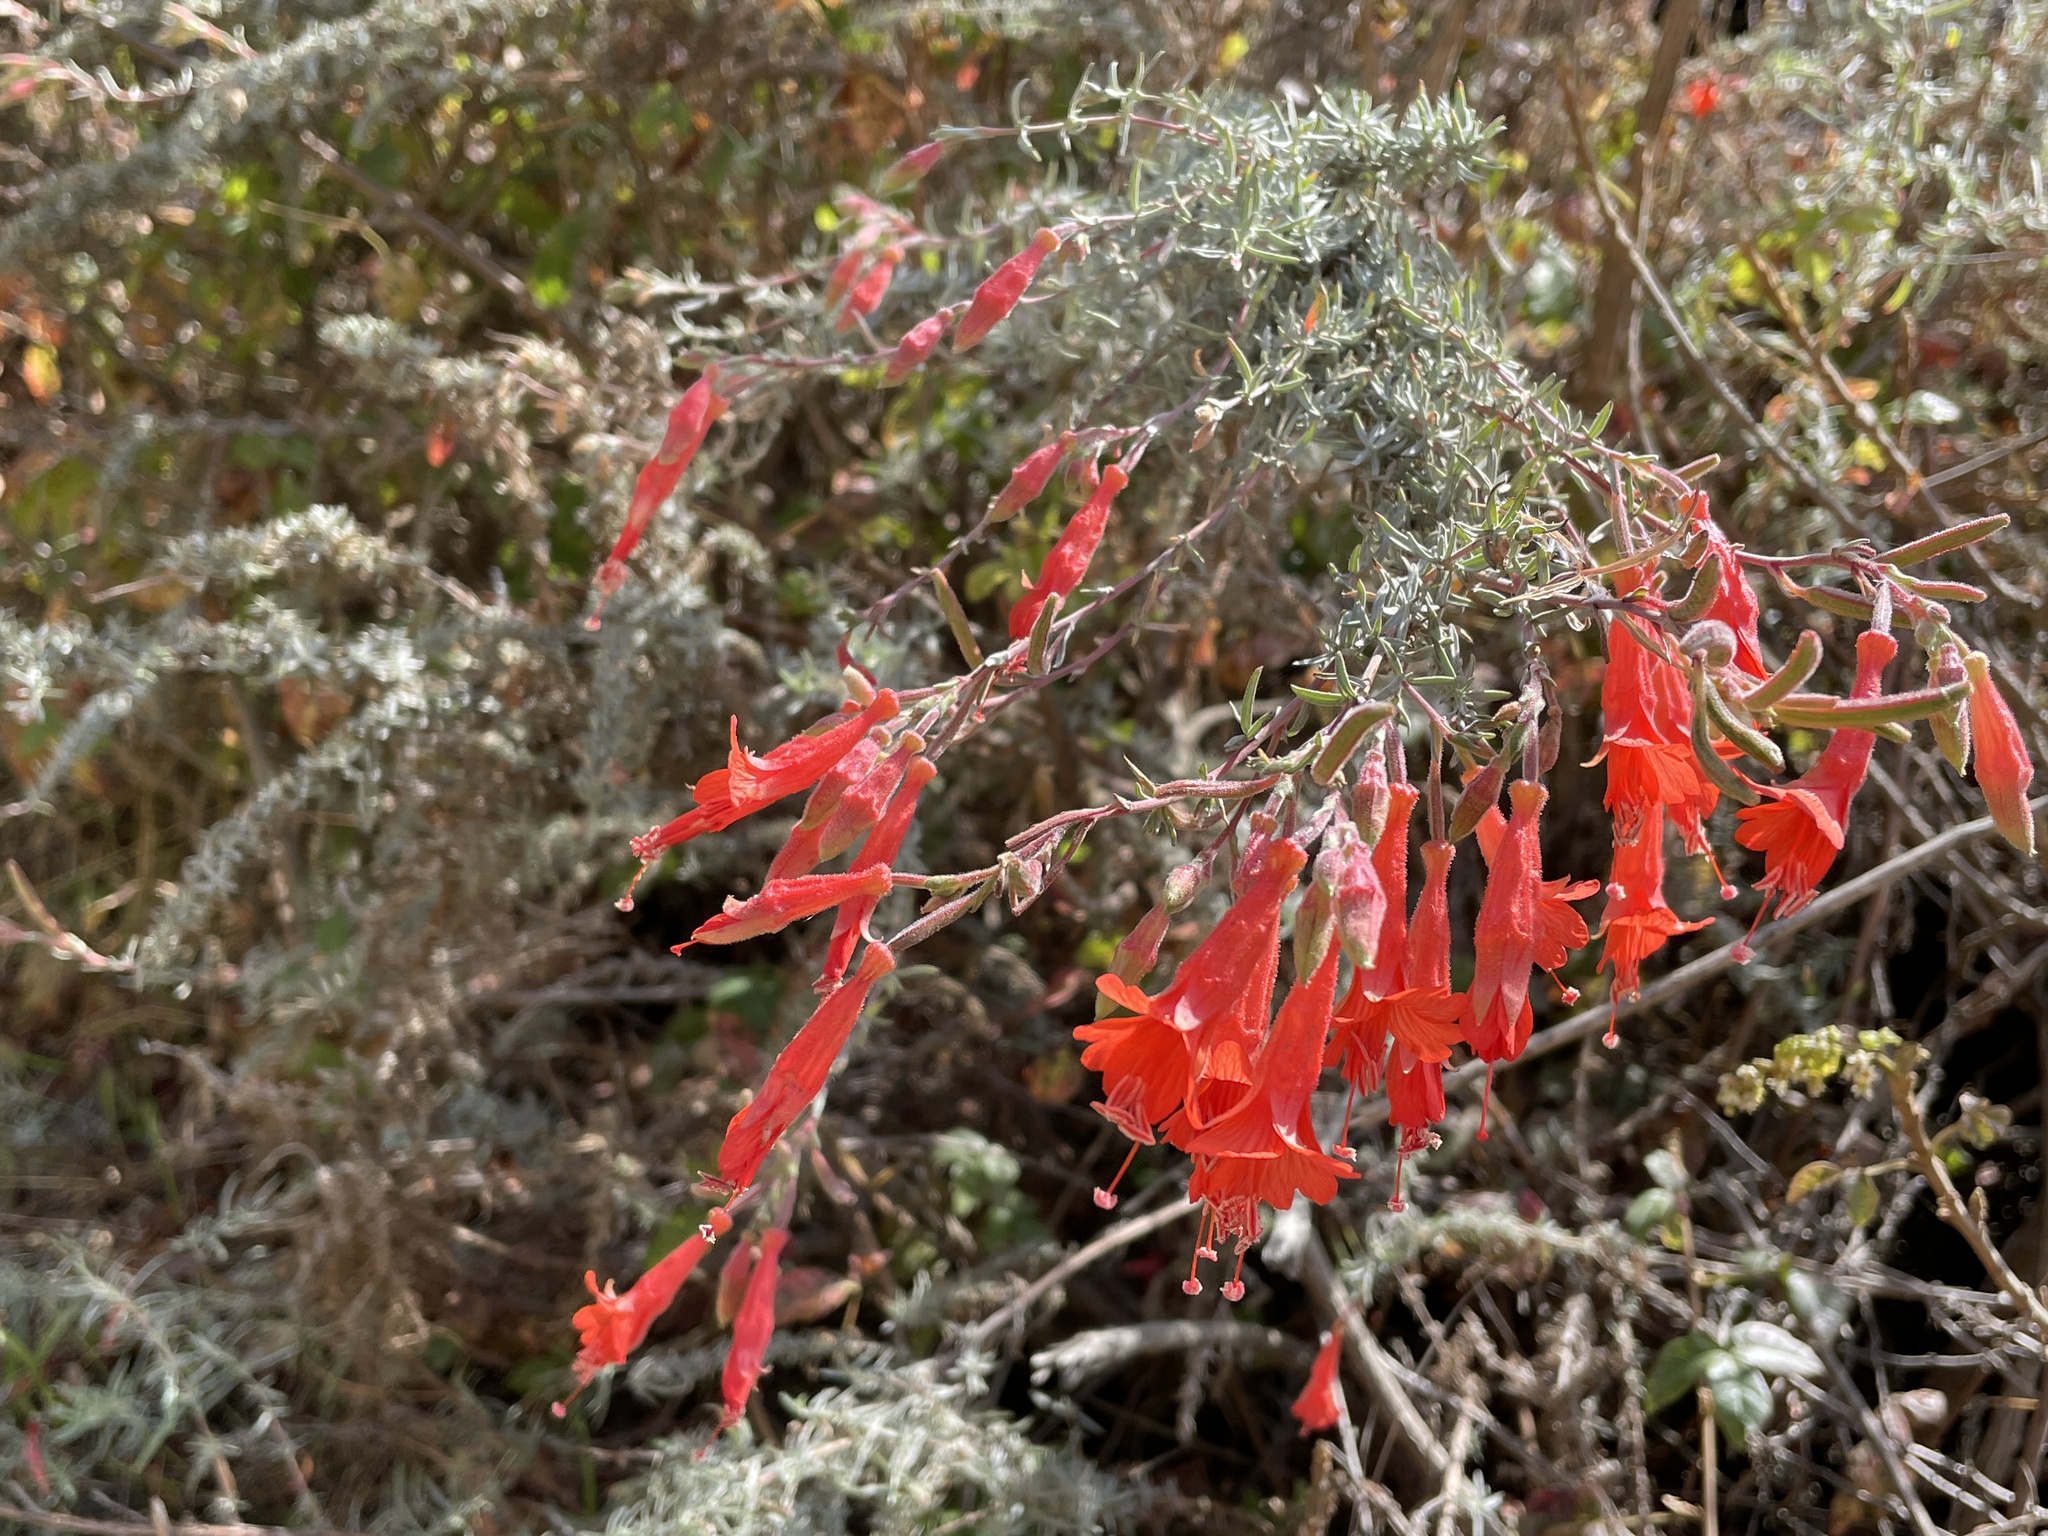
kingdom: Plantae
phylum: Tracheophyta
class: Magnoliopsida
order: Myrtales
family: Onagraceae
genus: Epilobium
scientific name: Epilobium canum
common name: California-fuchsia
